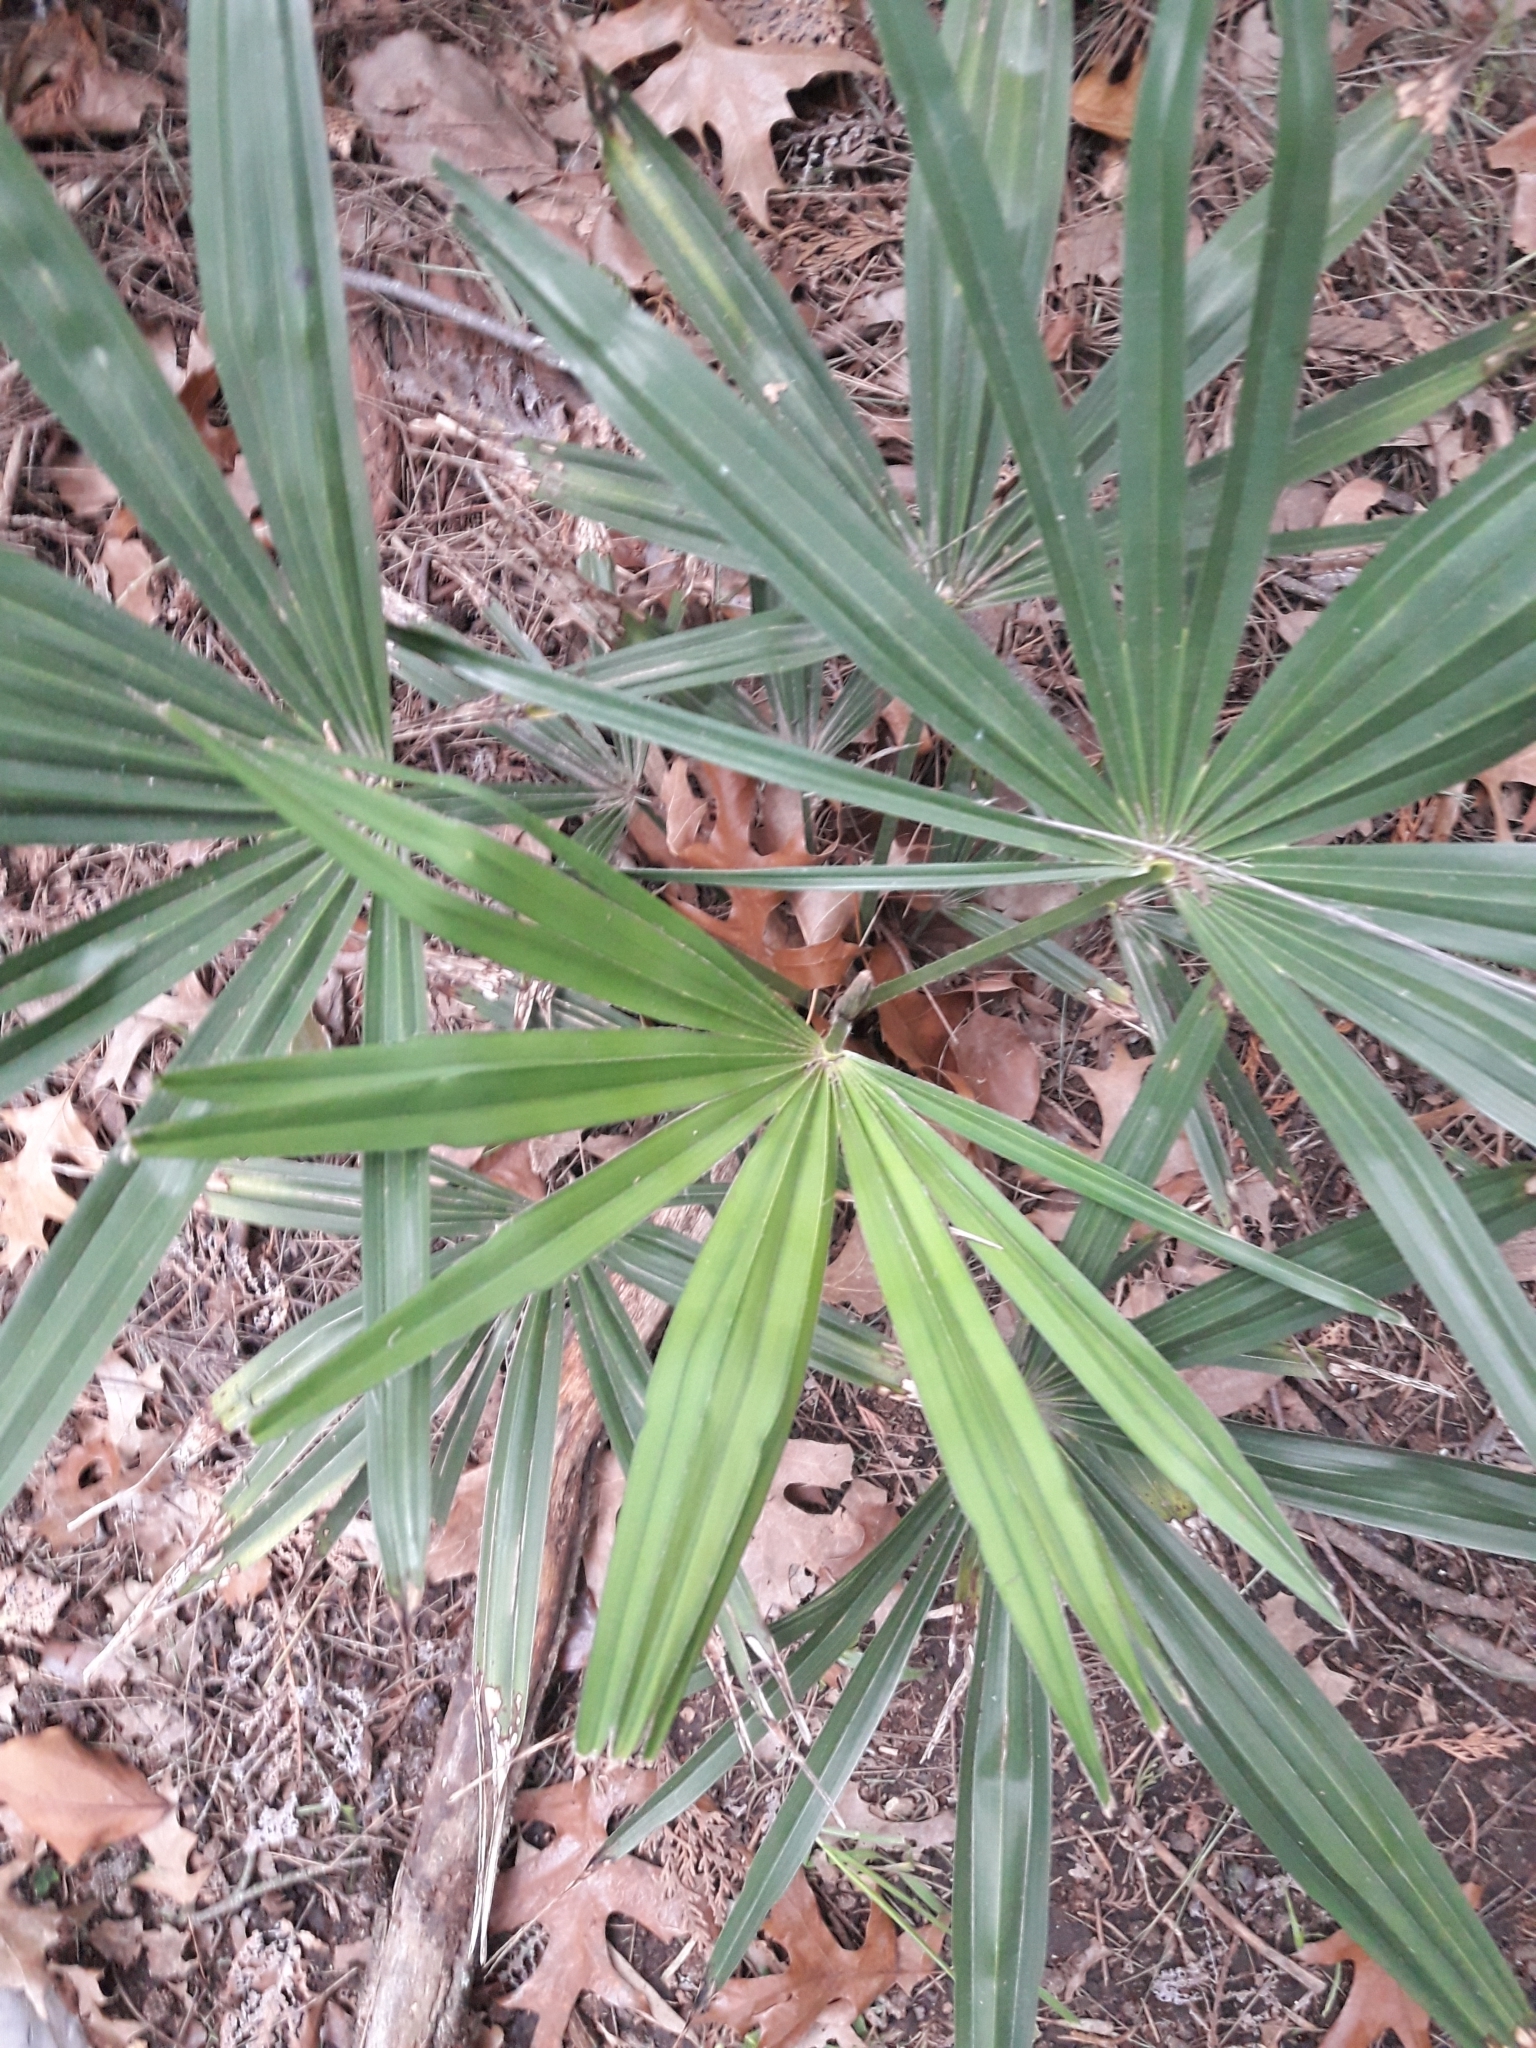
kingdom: Plantae
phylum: Tracheophyta
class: Liliopsida
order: Arecales
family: Arecaceae
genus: Trachycarpus
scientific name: Trachycarpus fortunei
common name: Chusan palm
